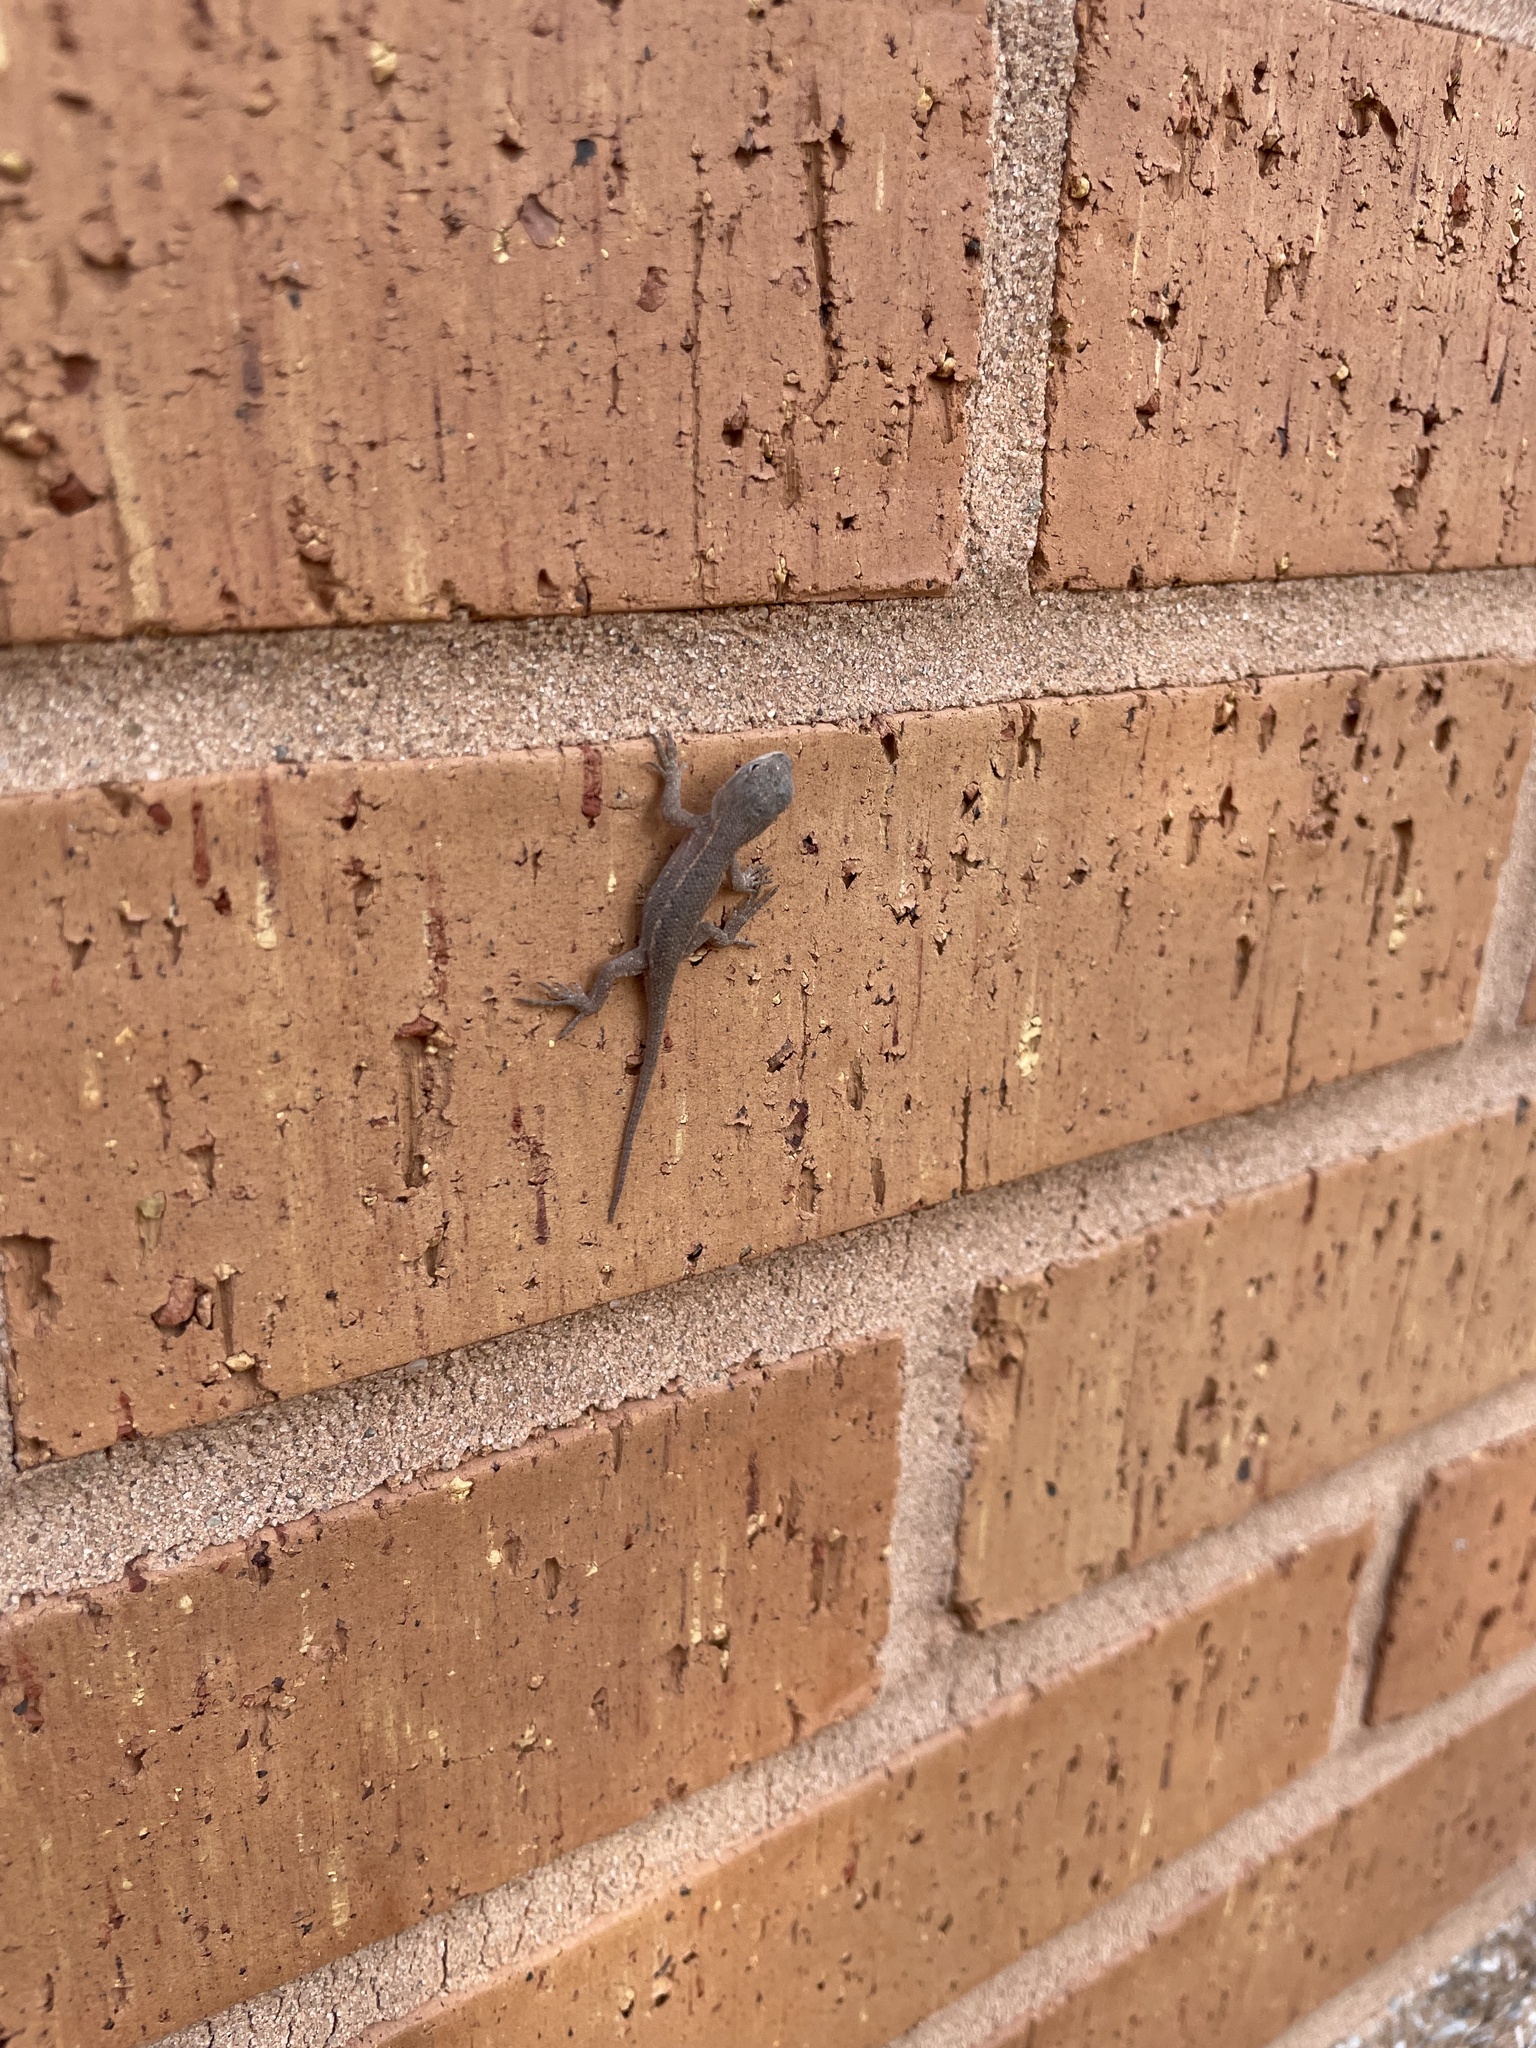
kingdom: Animalia
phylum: Chordata
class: Squamata
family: Phrynosomatidae
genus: Sceloporus
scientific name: Sceloporus consobrinus
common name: Southern prairie lizard
